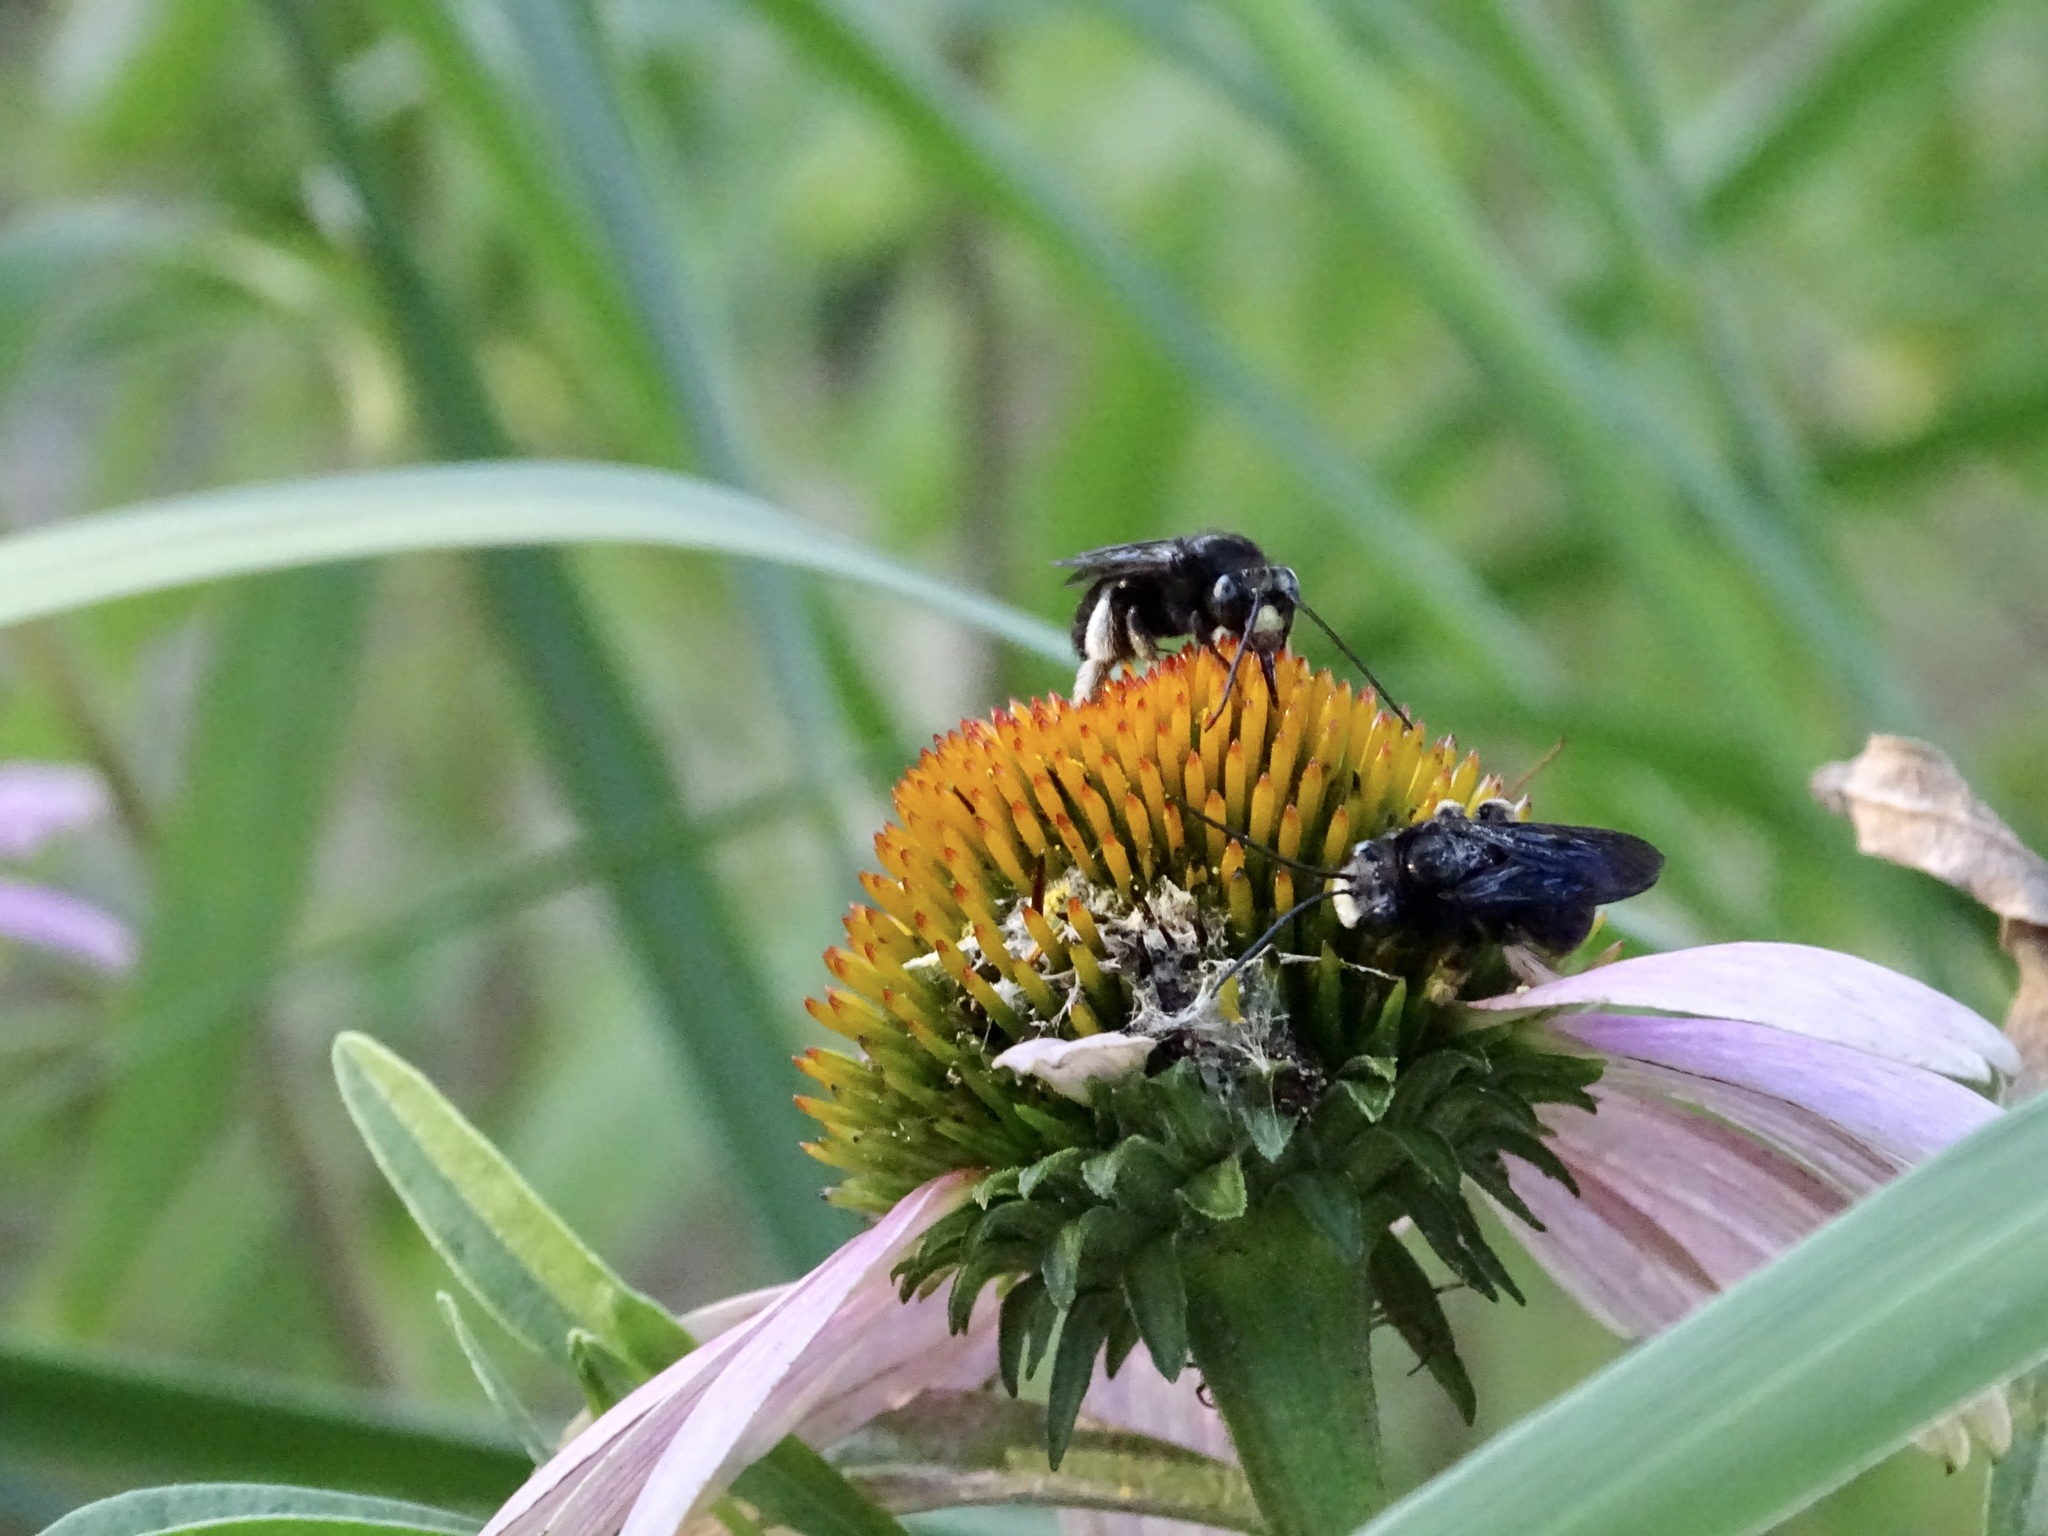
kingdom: Animalia
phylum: Arthropoda
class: Insecta
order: Hymenoptera
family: Apidae
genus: Melissodes
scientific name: Melissodes bimaculatus
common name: Two-spotted long-horned bee
